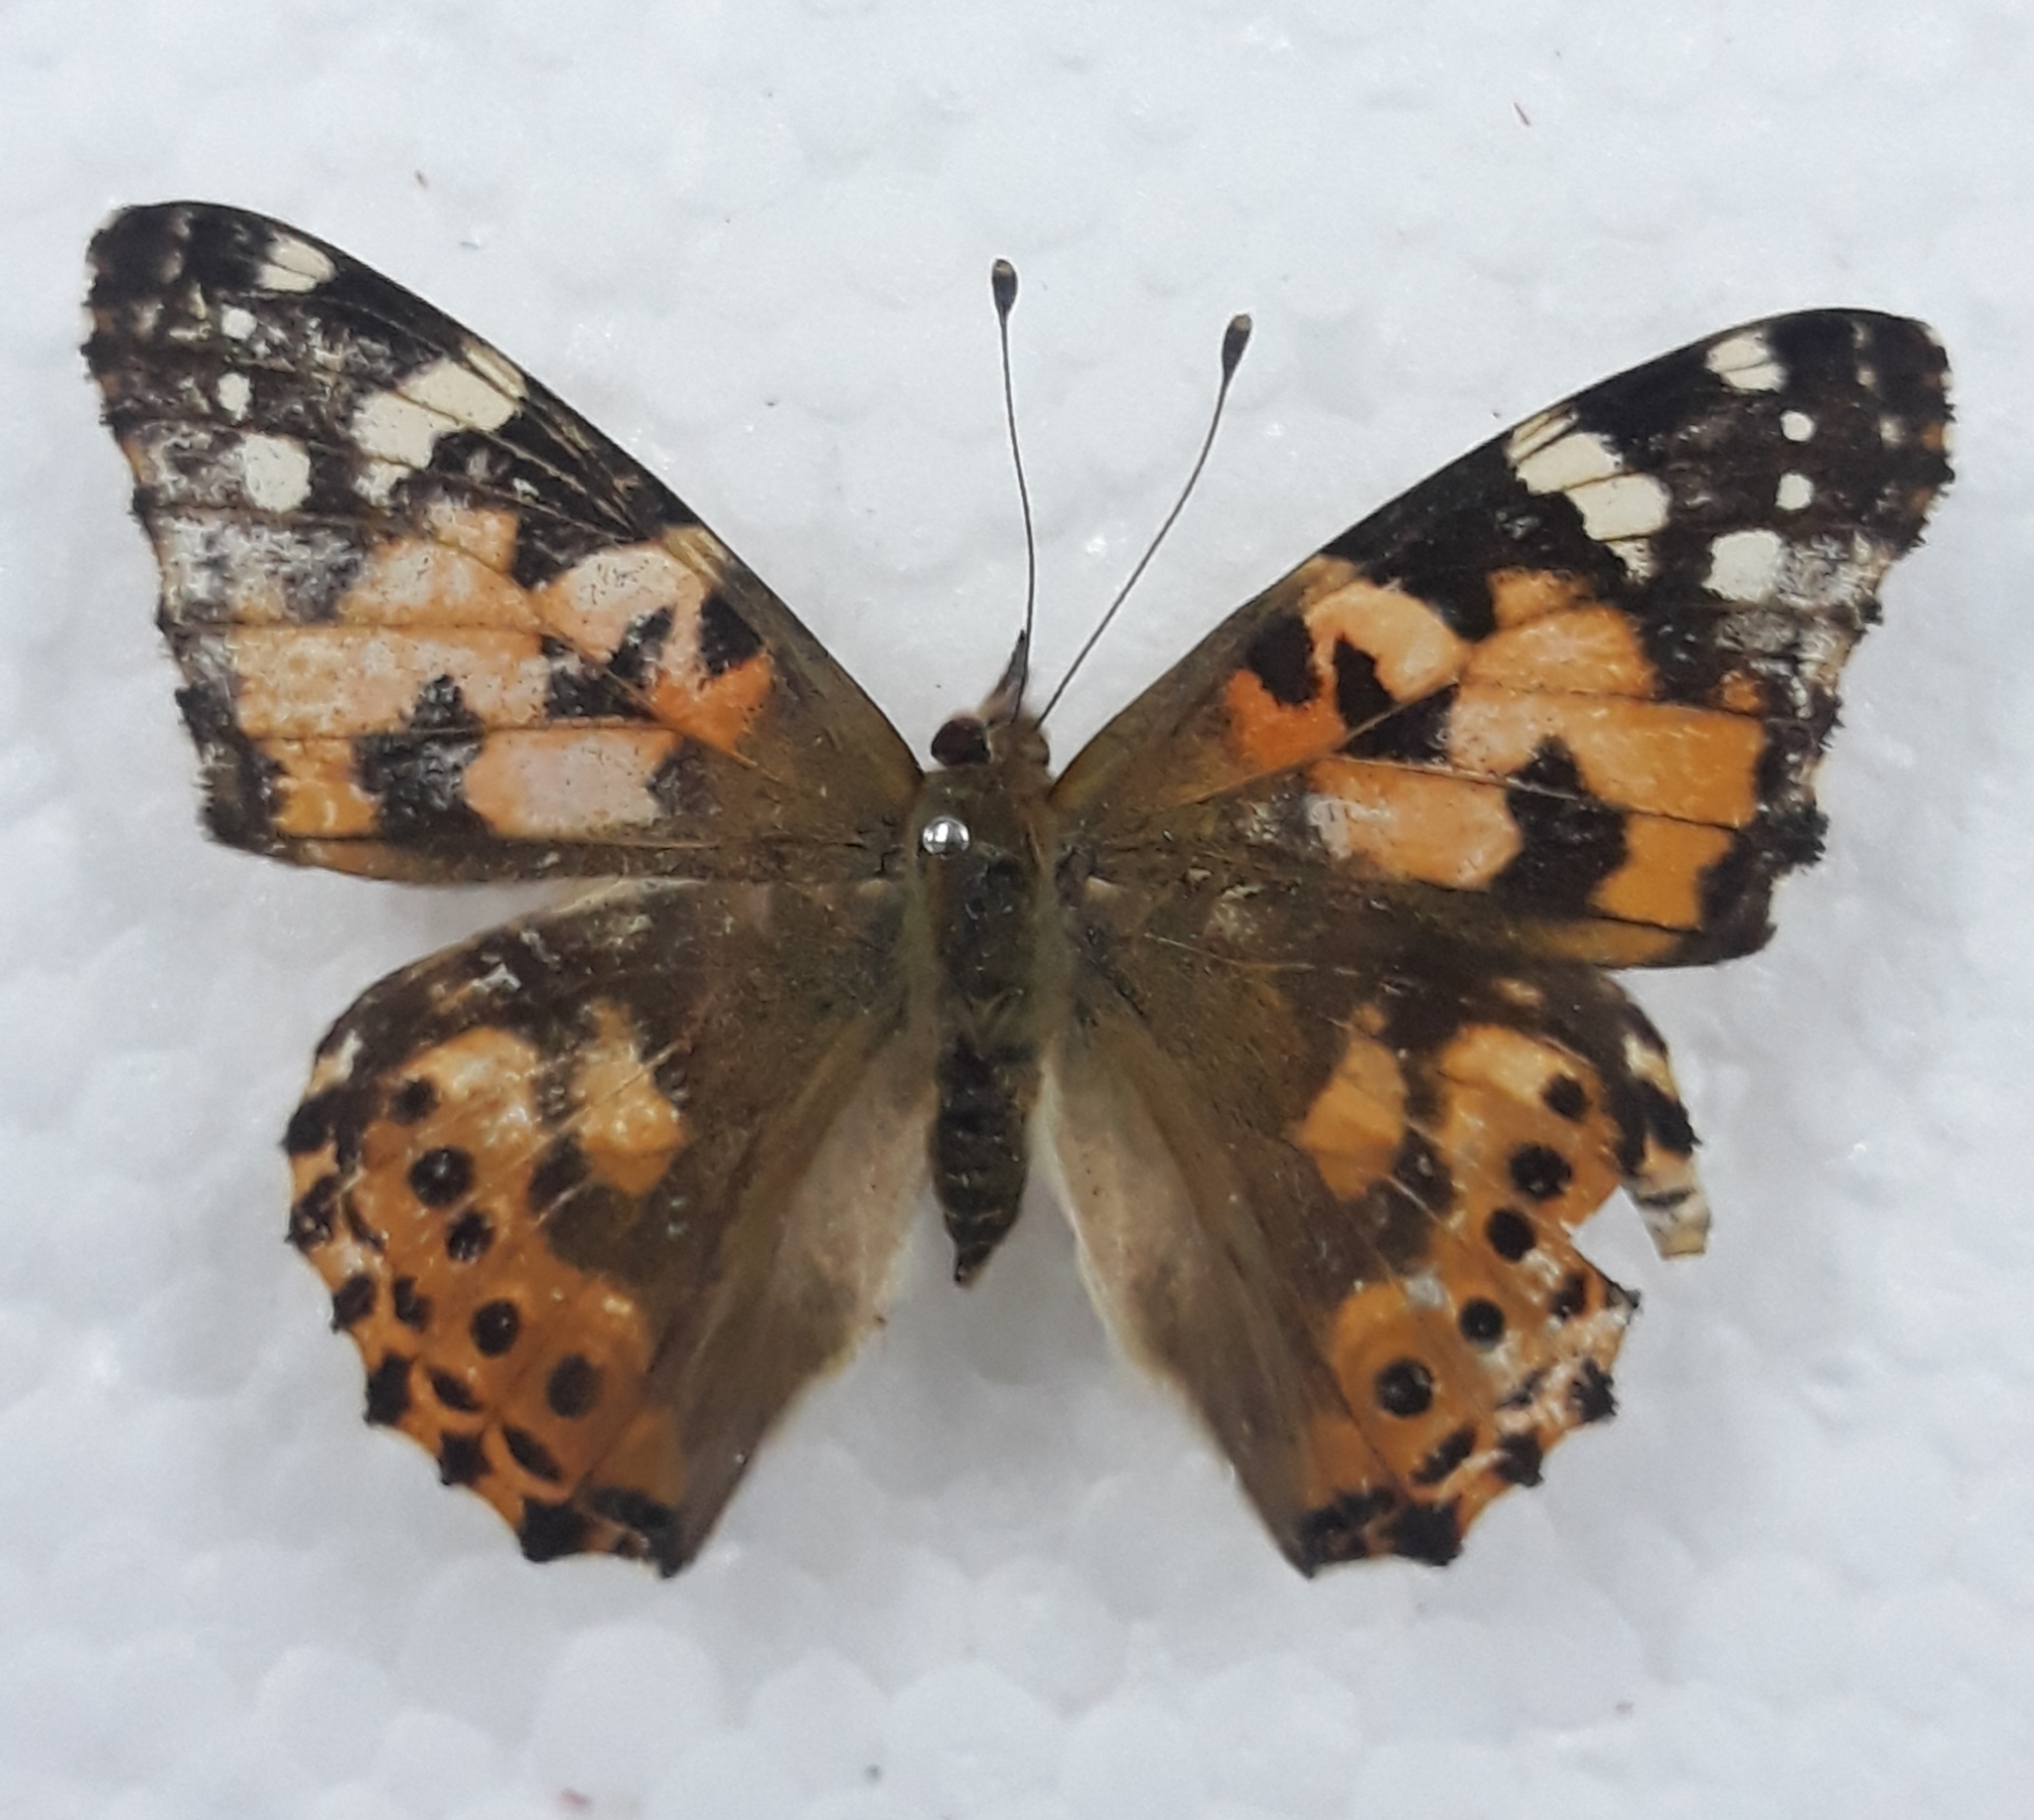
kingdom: Animalia
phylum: Arthropoda
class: Insecta
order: Lepidoptera
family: Nymphalidae
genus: Vanessa
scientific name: Vanessa cardui
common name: Painted lady
